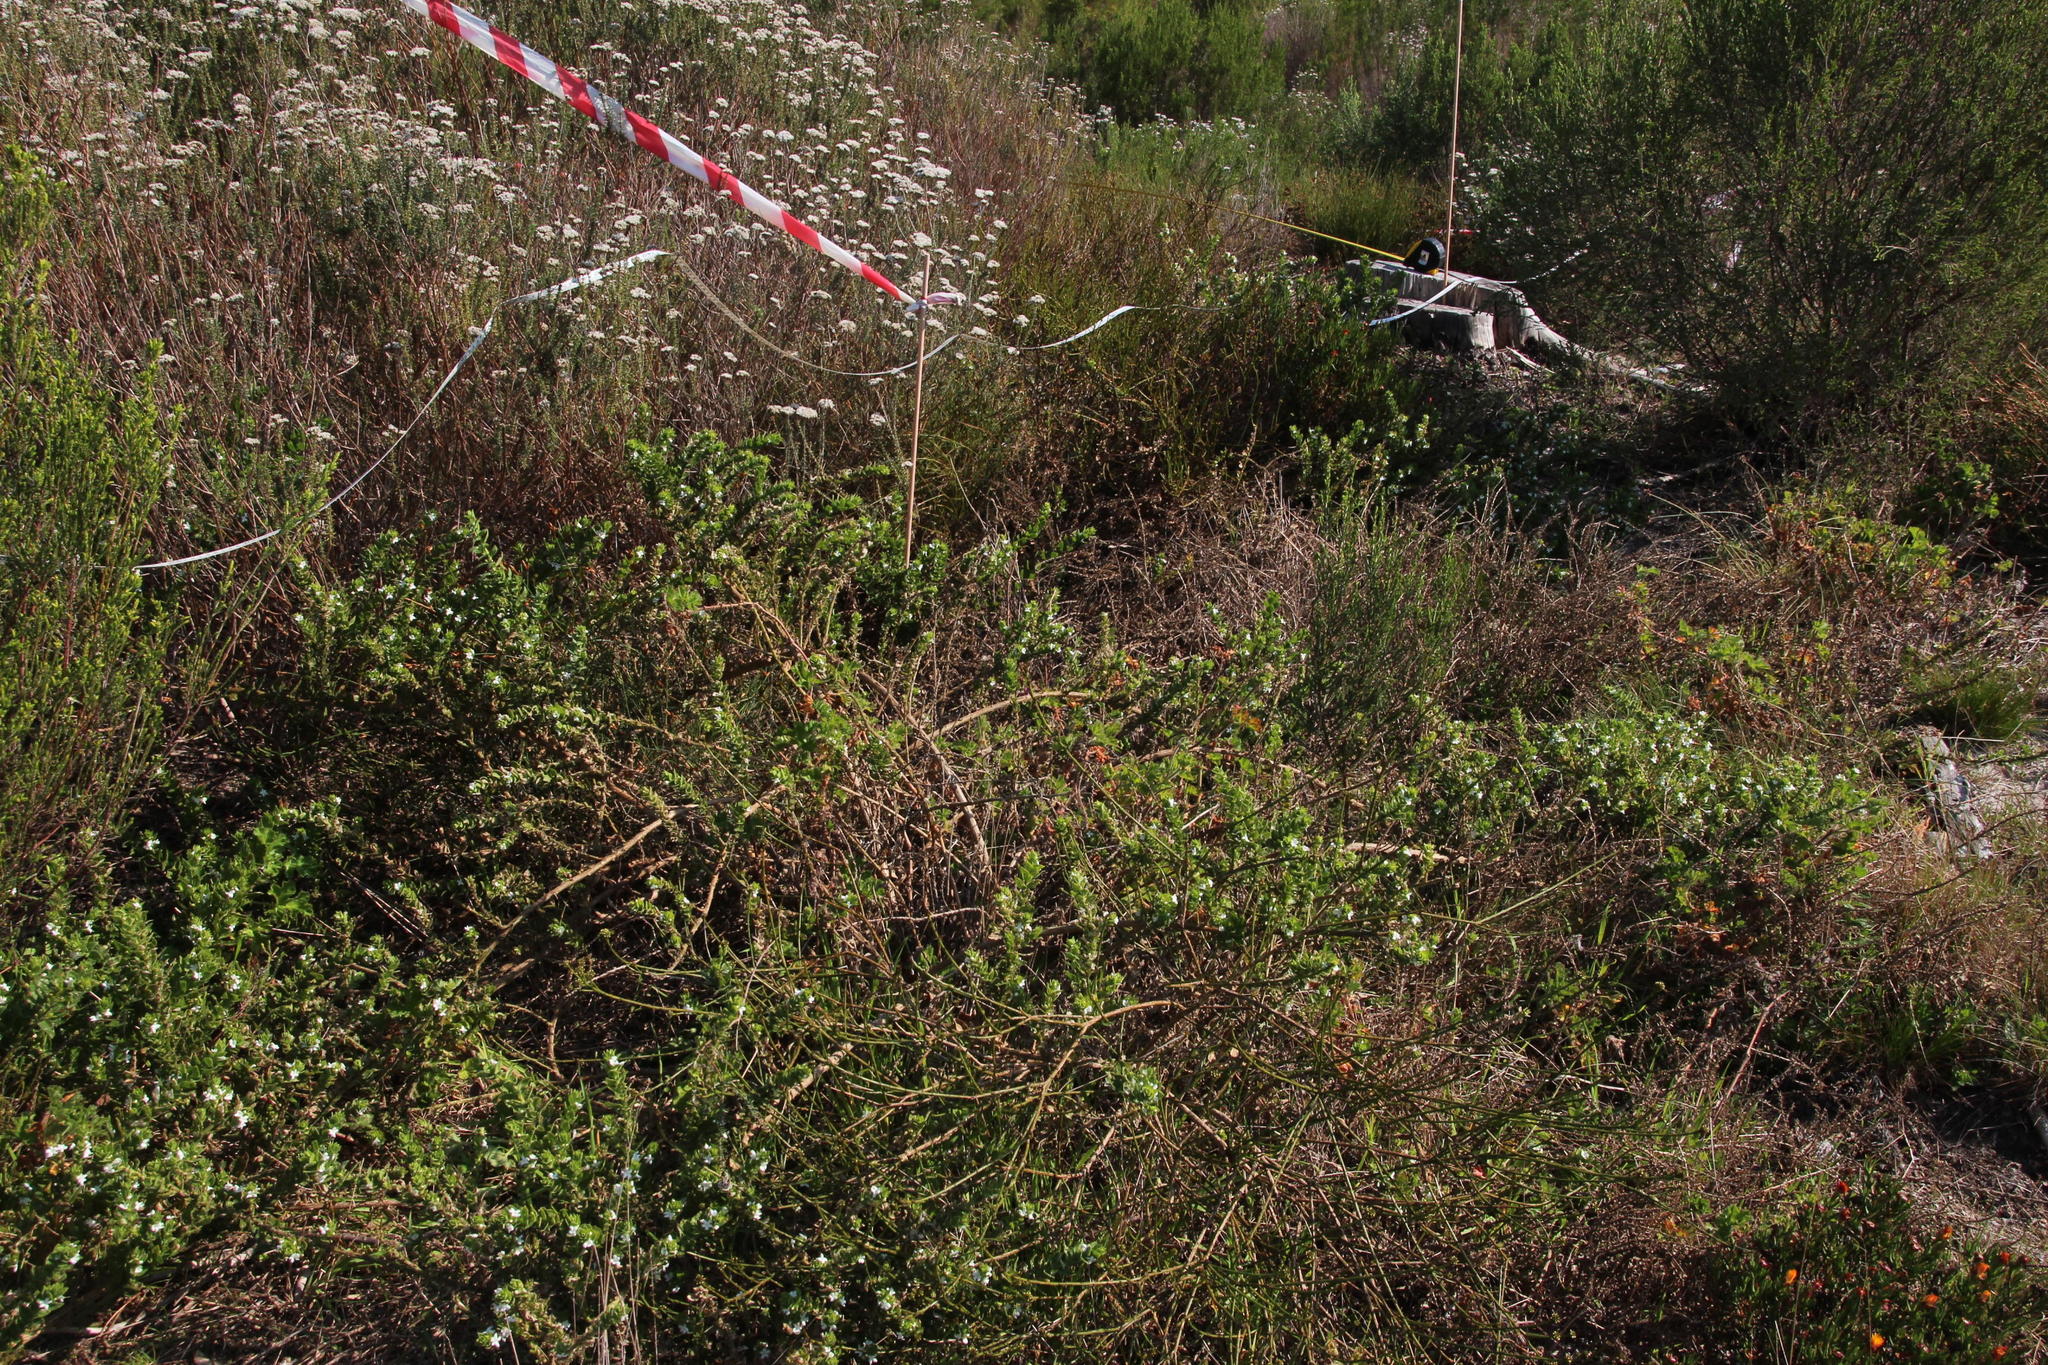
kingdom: Plantae
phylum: Tracheophyta
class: Magnoliopsida
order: Lamiales
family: Scrophulariaceae
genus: Oftia
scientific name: Oftia africana
